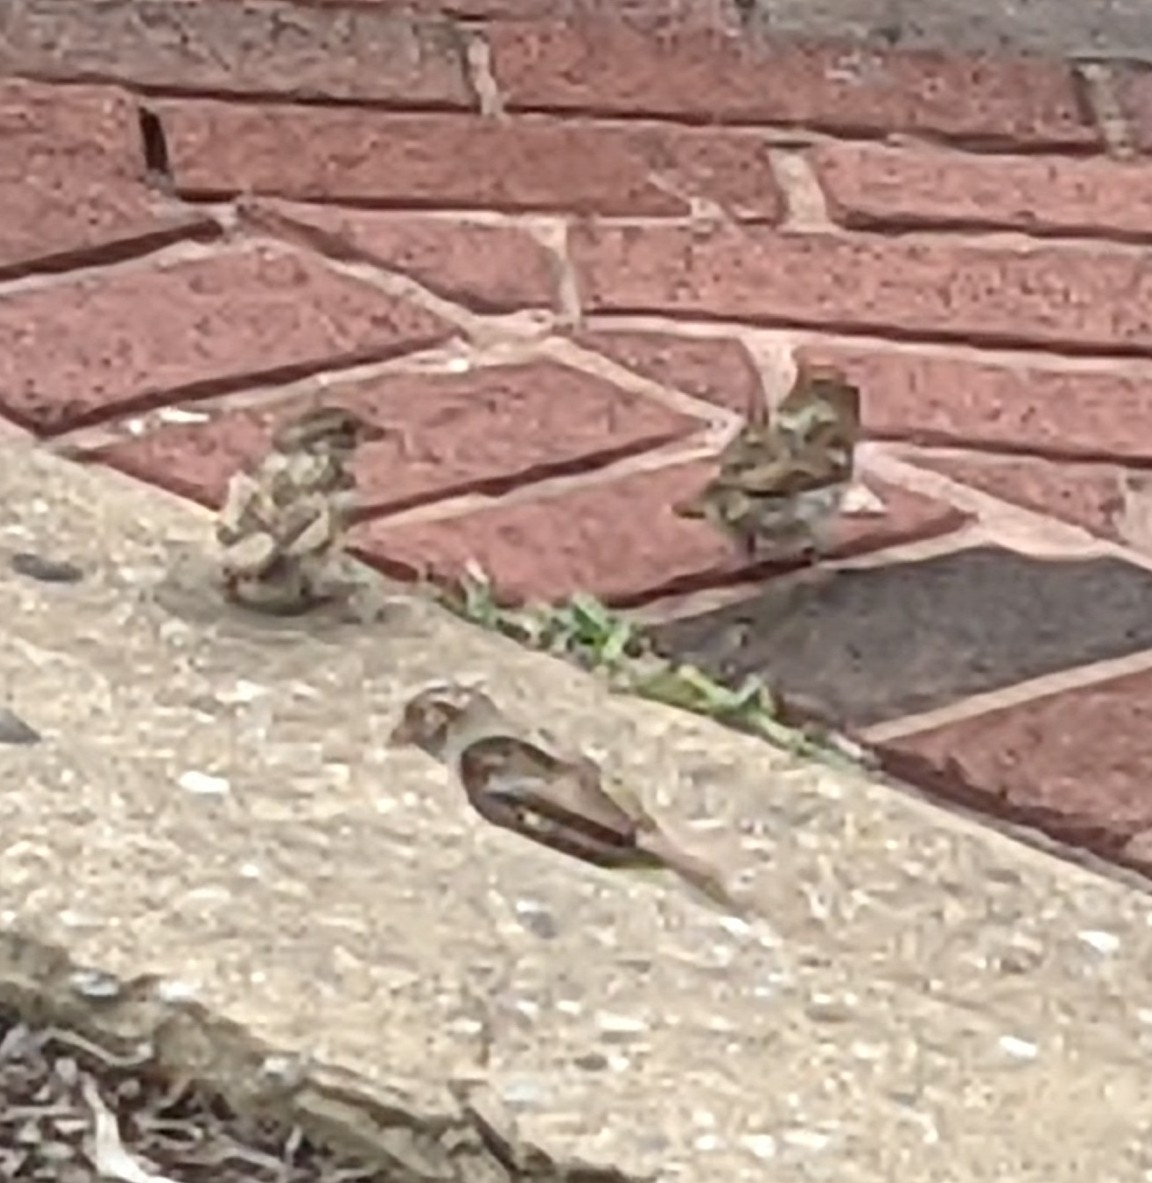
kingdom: Animalia
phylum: Chordata
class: Aves
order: Passeriformes
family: Passeridae
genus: Passer
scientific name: Passer domesticus
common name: House sparrow
